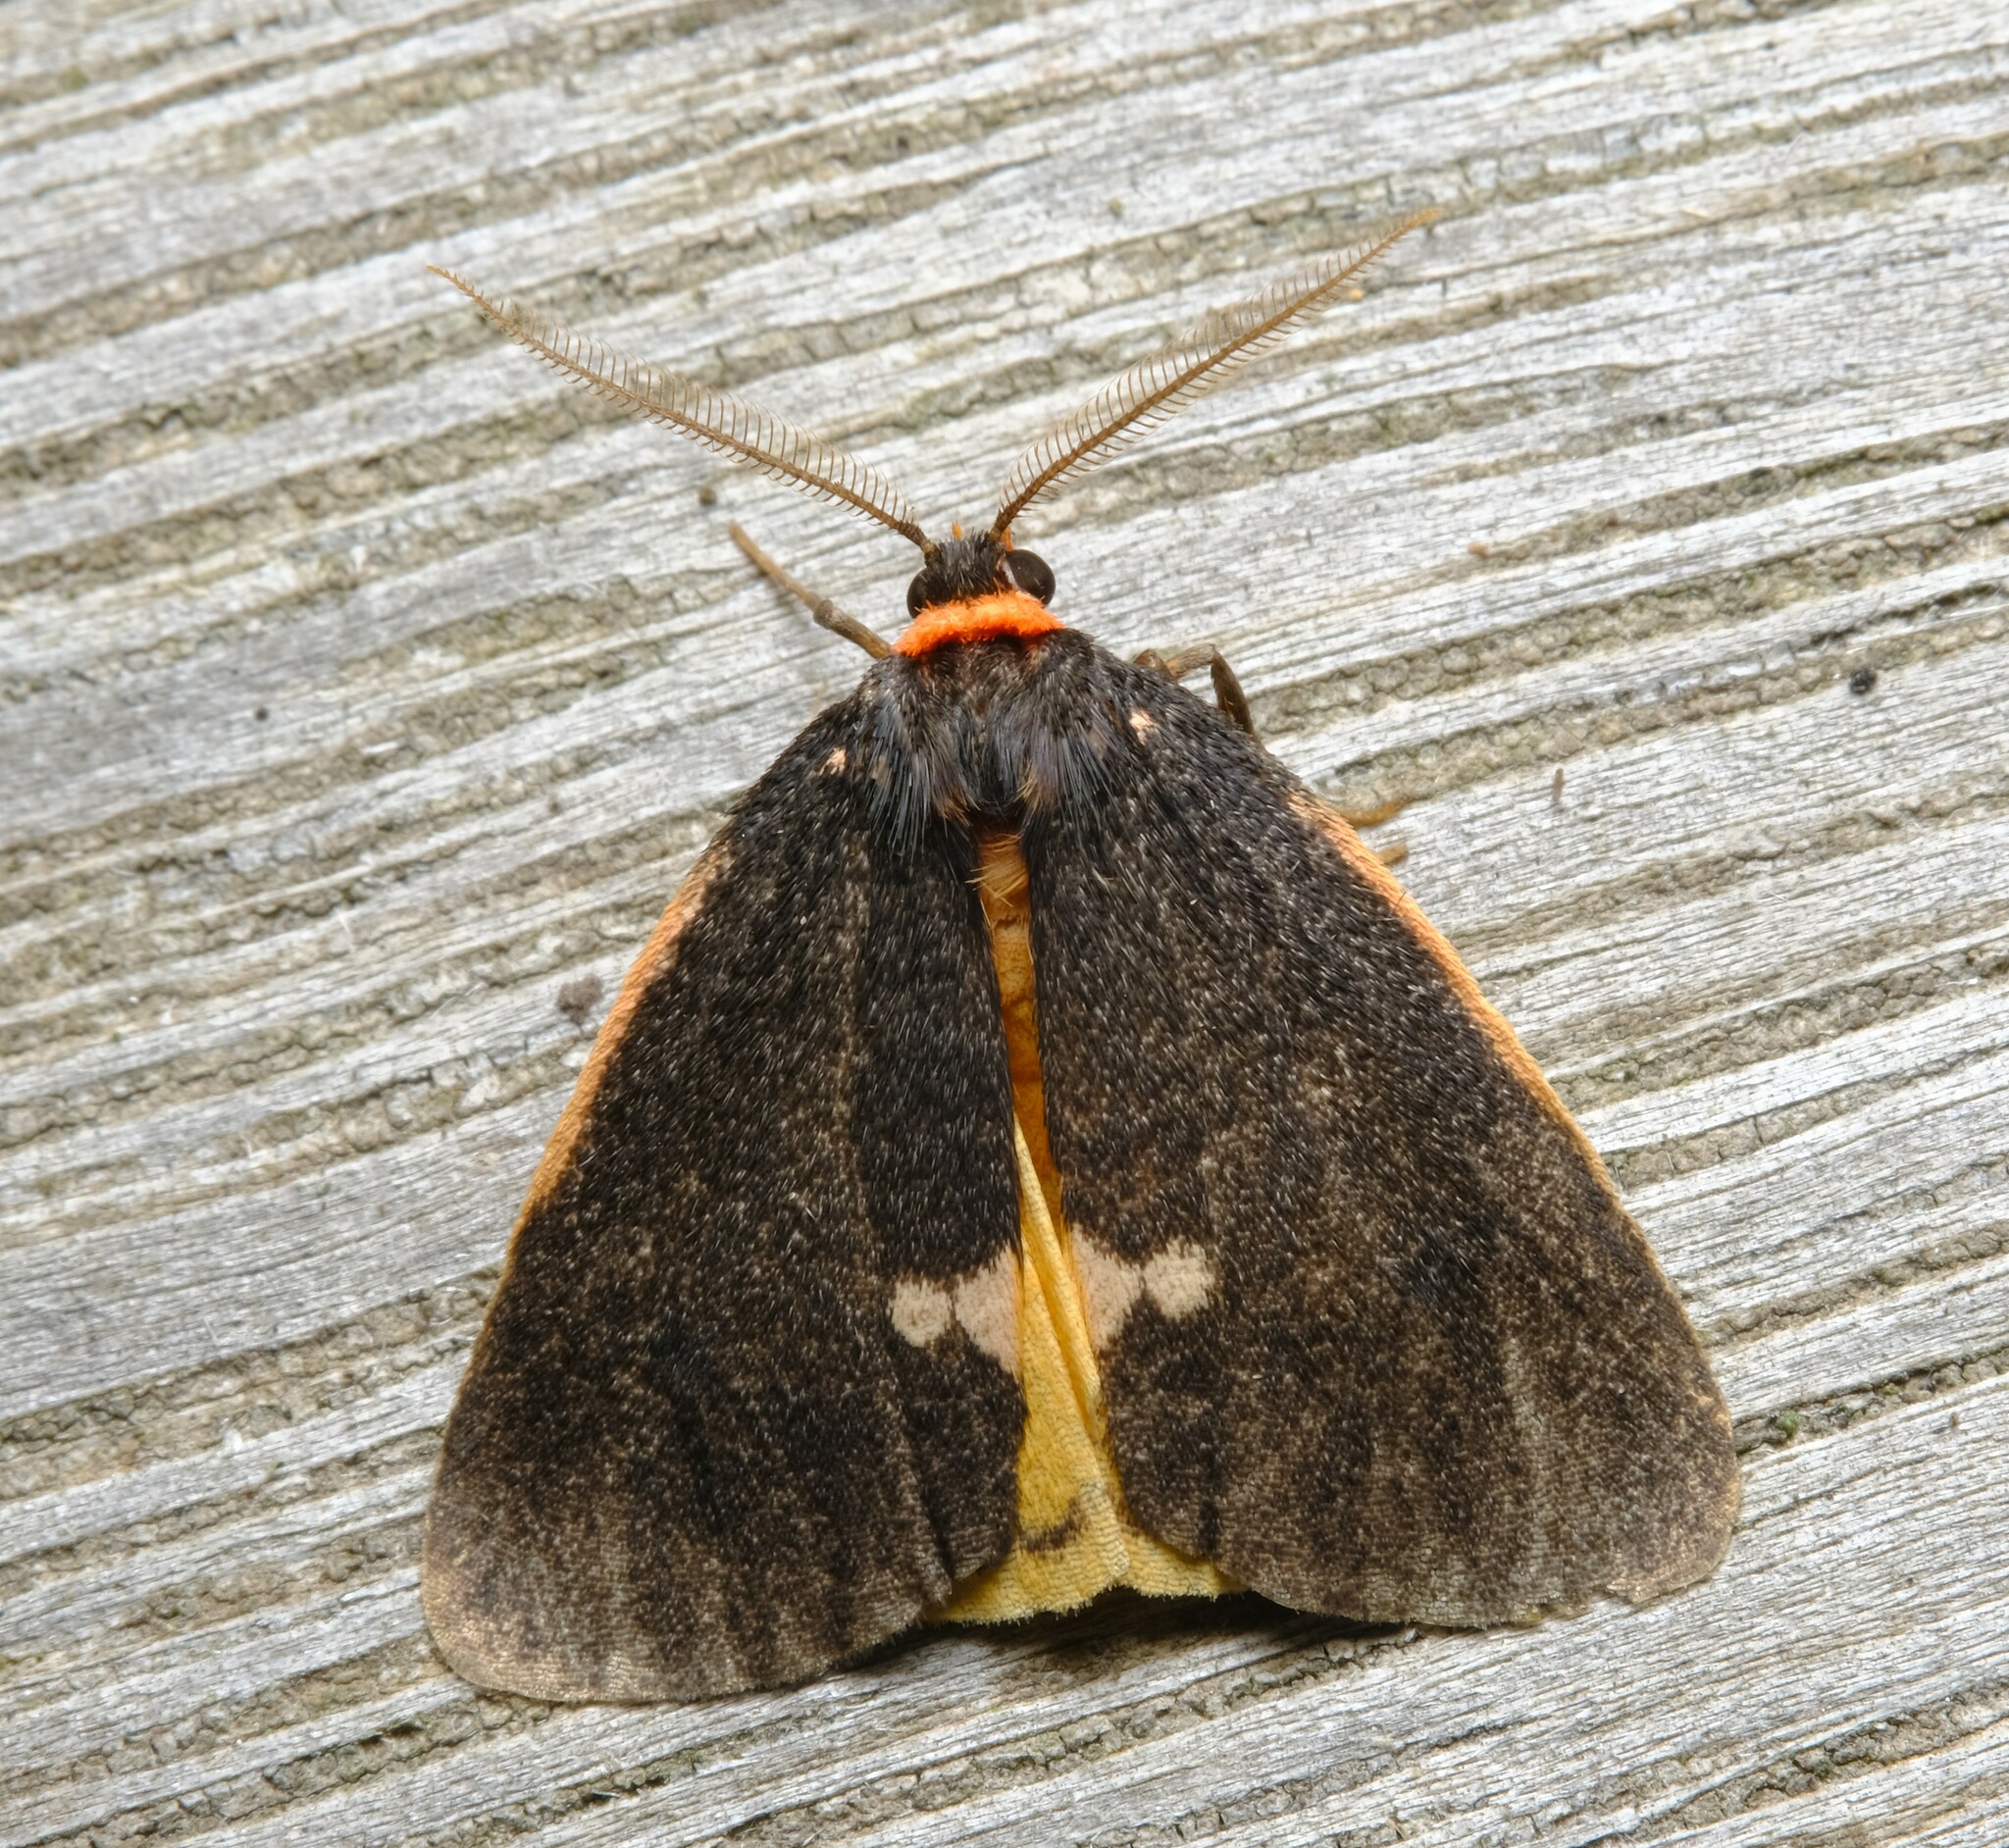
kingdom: Animalia
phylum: Arthropoda
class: Insecta
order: Lepidoptera
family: Erebidae
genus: Castulo
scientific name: Castulo doubledayi
